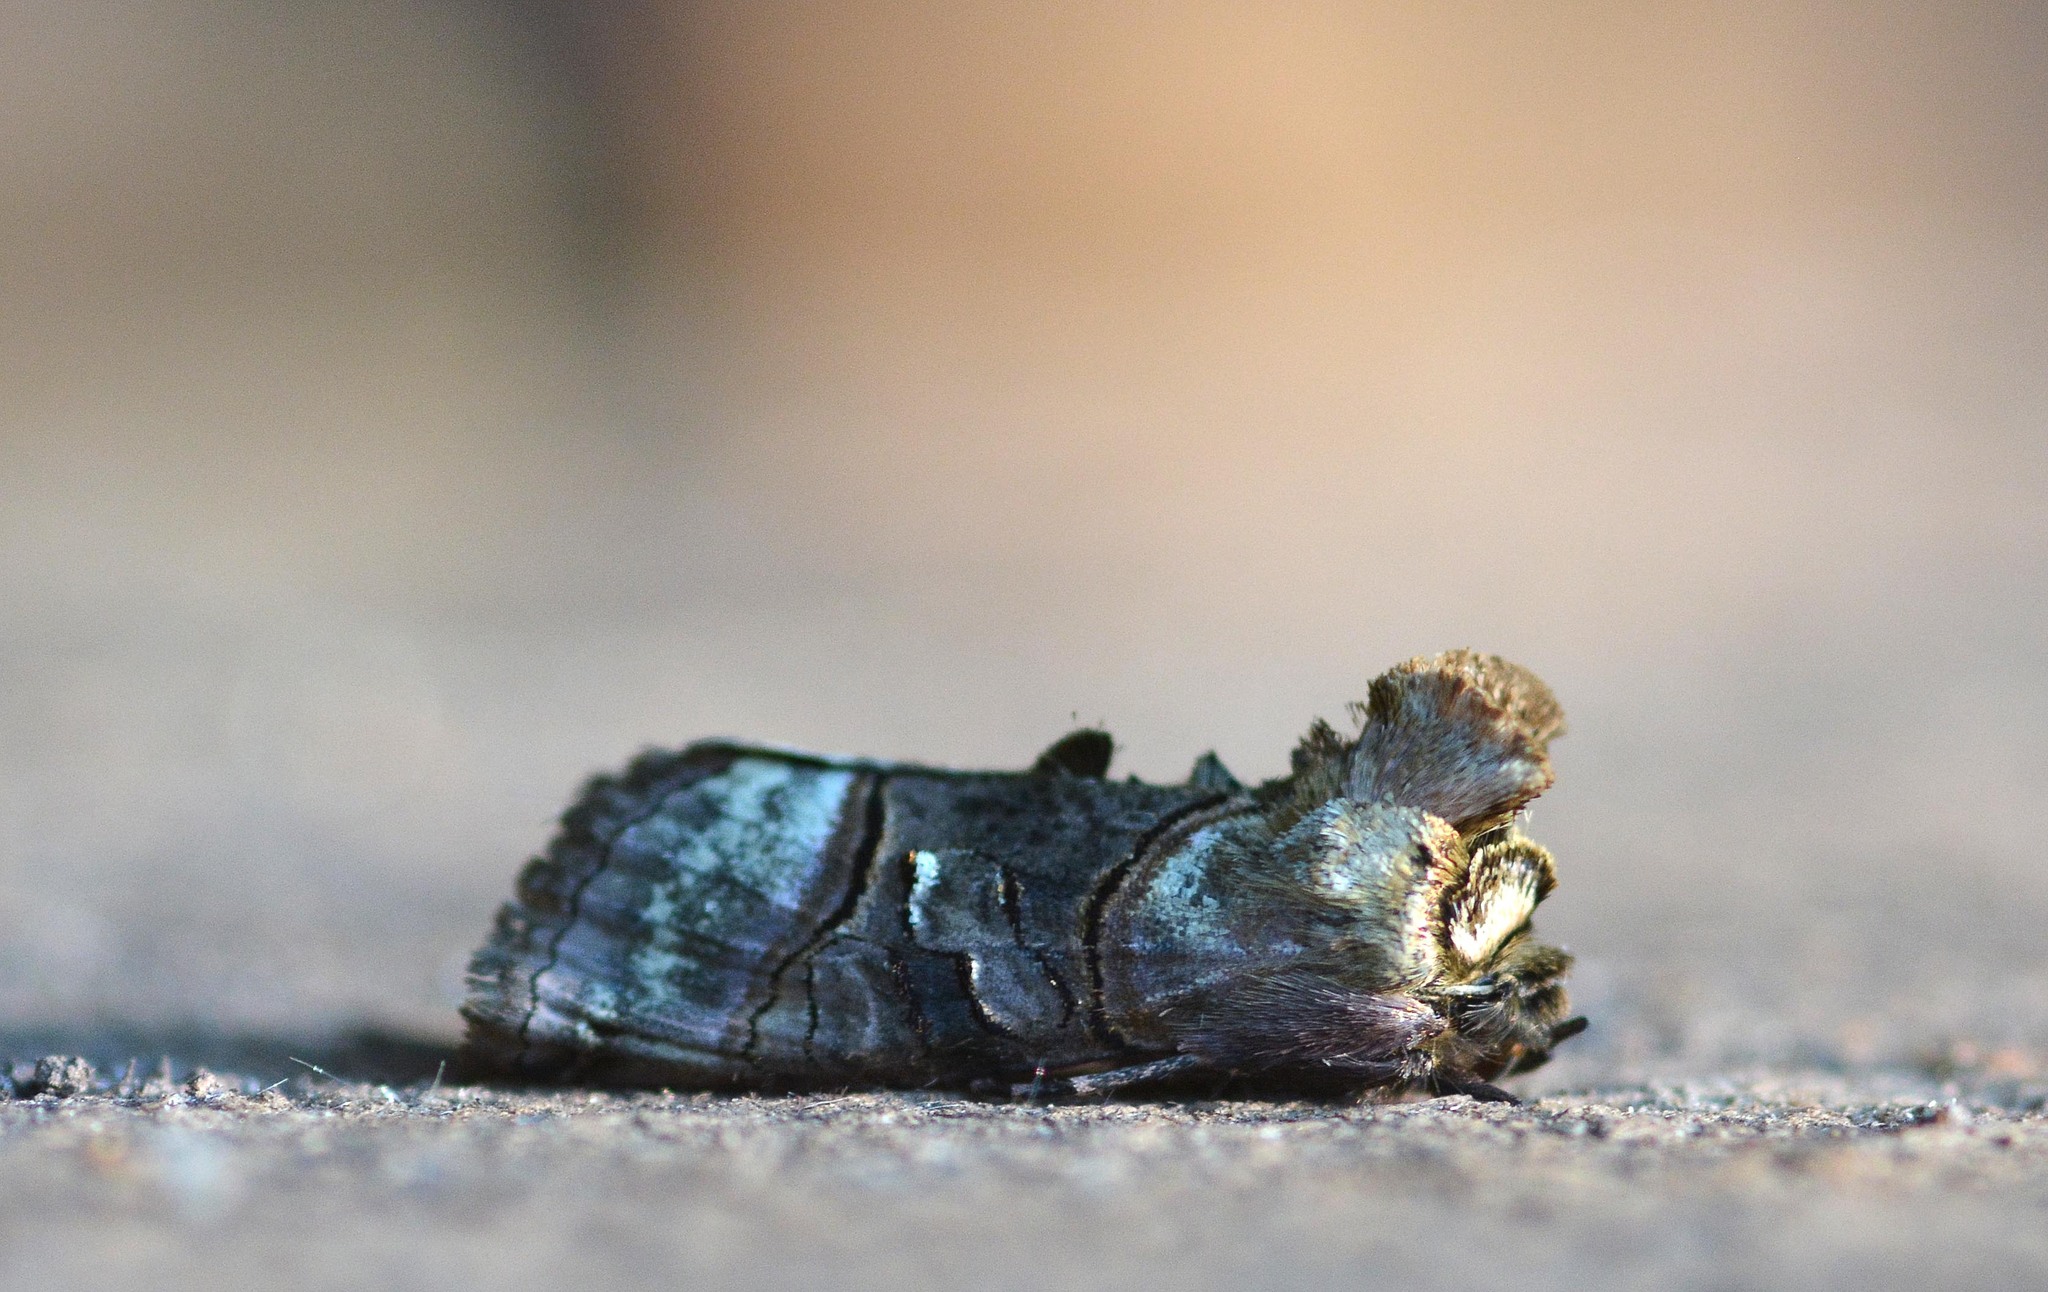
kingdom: Animalia
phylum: Arthropoda
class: Insecta
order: Lepidoptera
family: Noctuidae
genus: Abrostola
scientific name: Abrostola tripartita
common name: Spectacle
